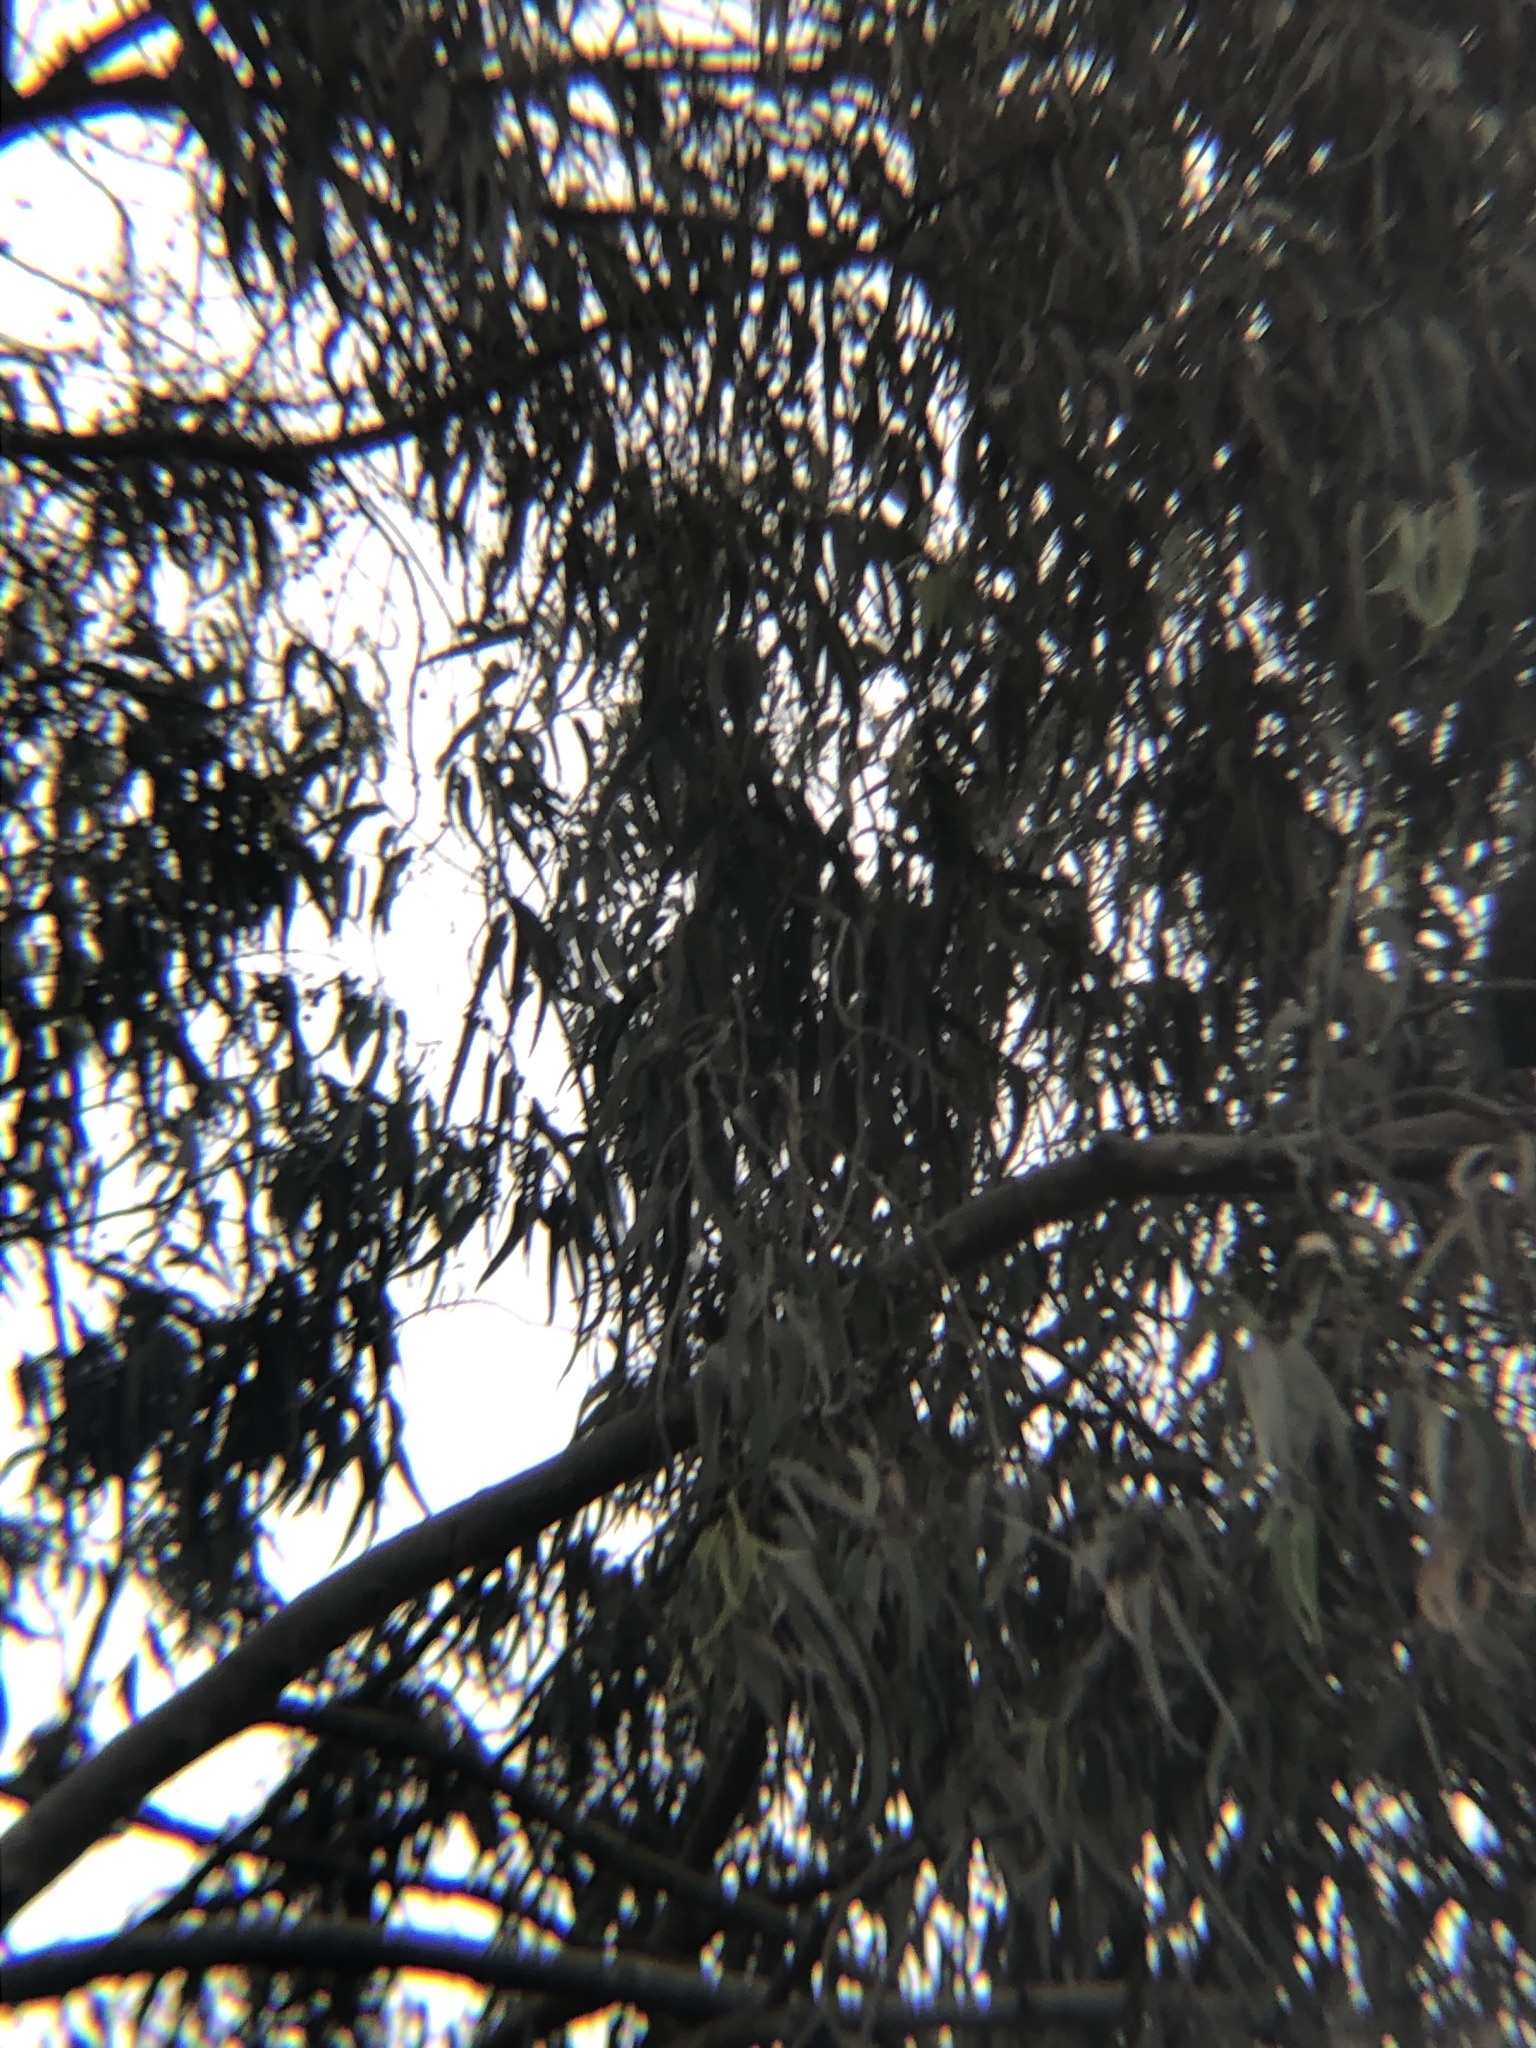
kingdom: Animalia
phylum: Chordata
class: Aves
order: Accipitriformes
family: Accipitridae
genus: Parabuteo
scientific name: Parabuteo unicinctus
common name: Harris's hawk
